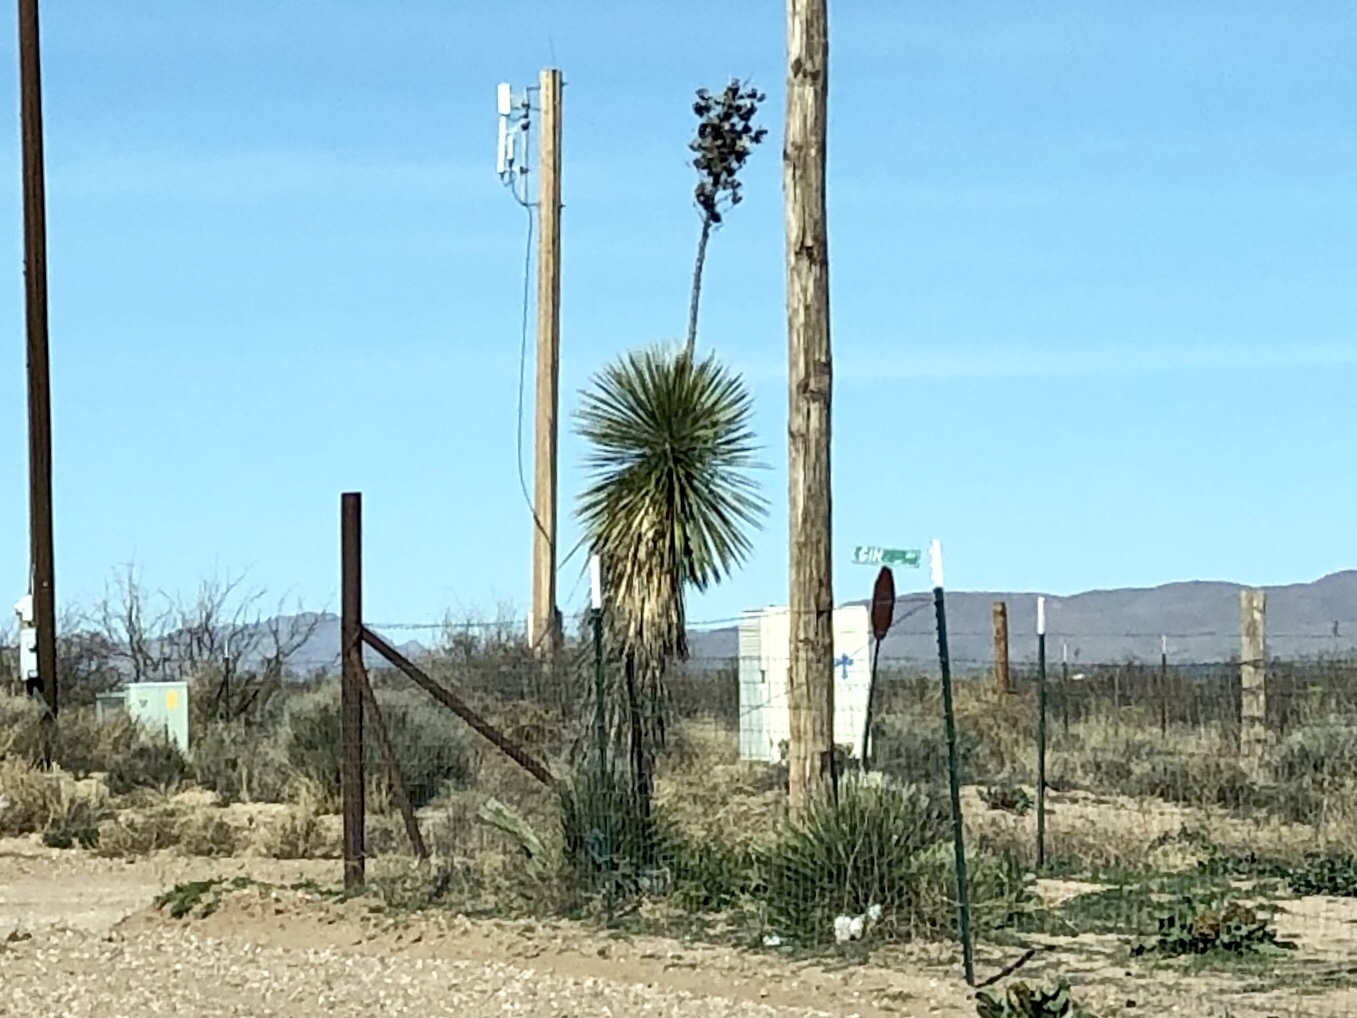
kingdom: Plantae
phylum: Tracheophyta
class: Liliopsida
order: Asparagales
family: Asparagaceae
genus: Yucca
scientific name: Yucca elata
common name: Palmella
